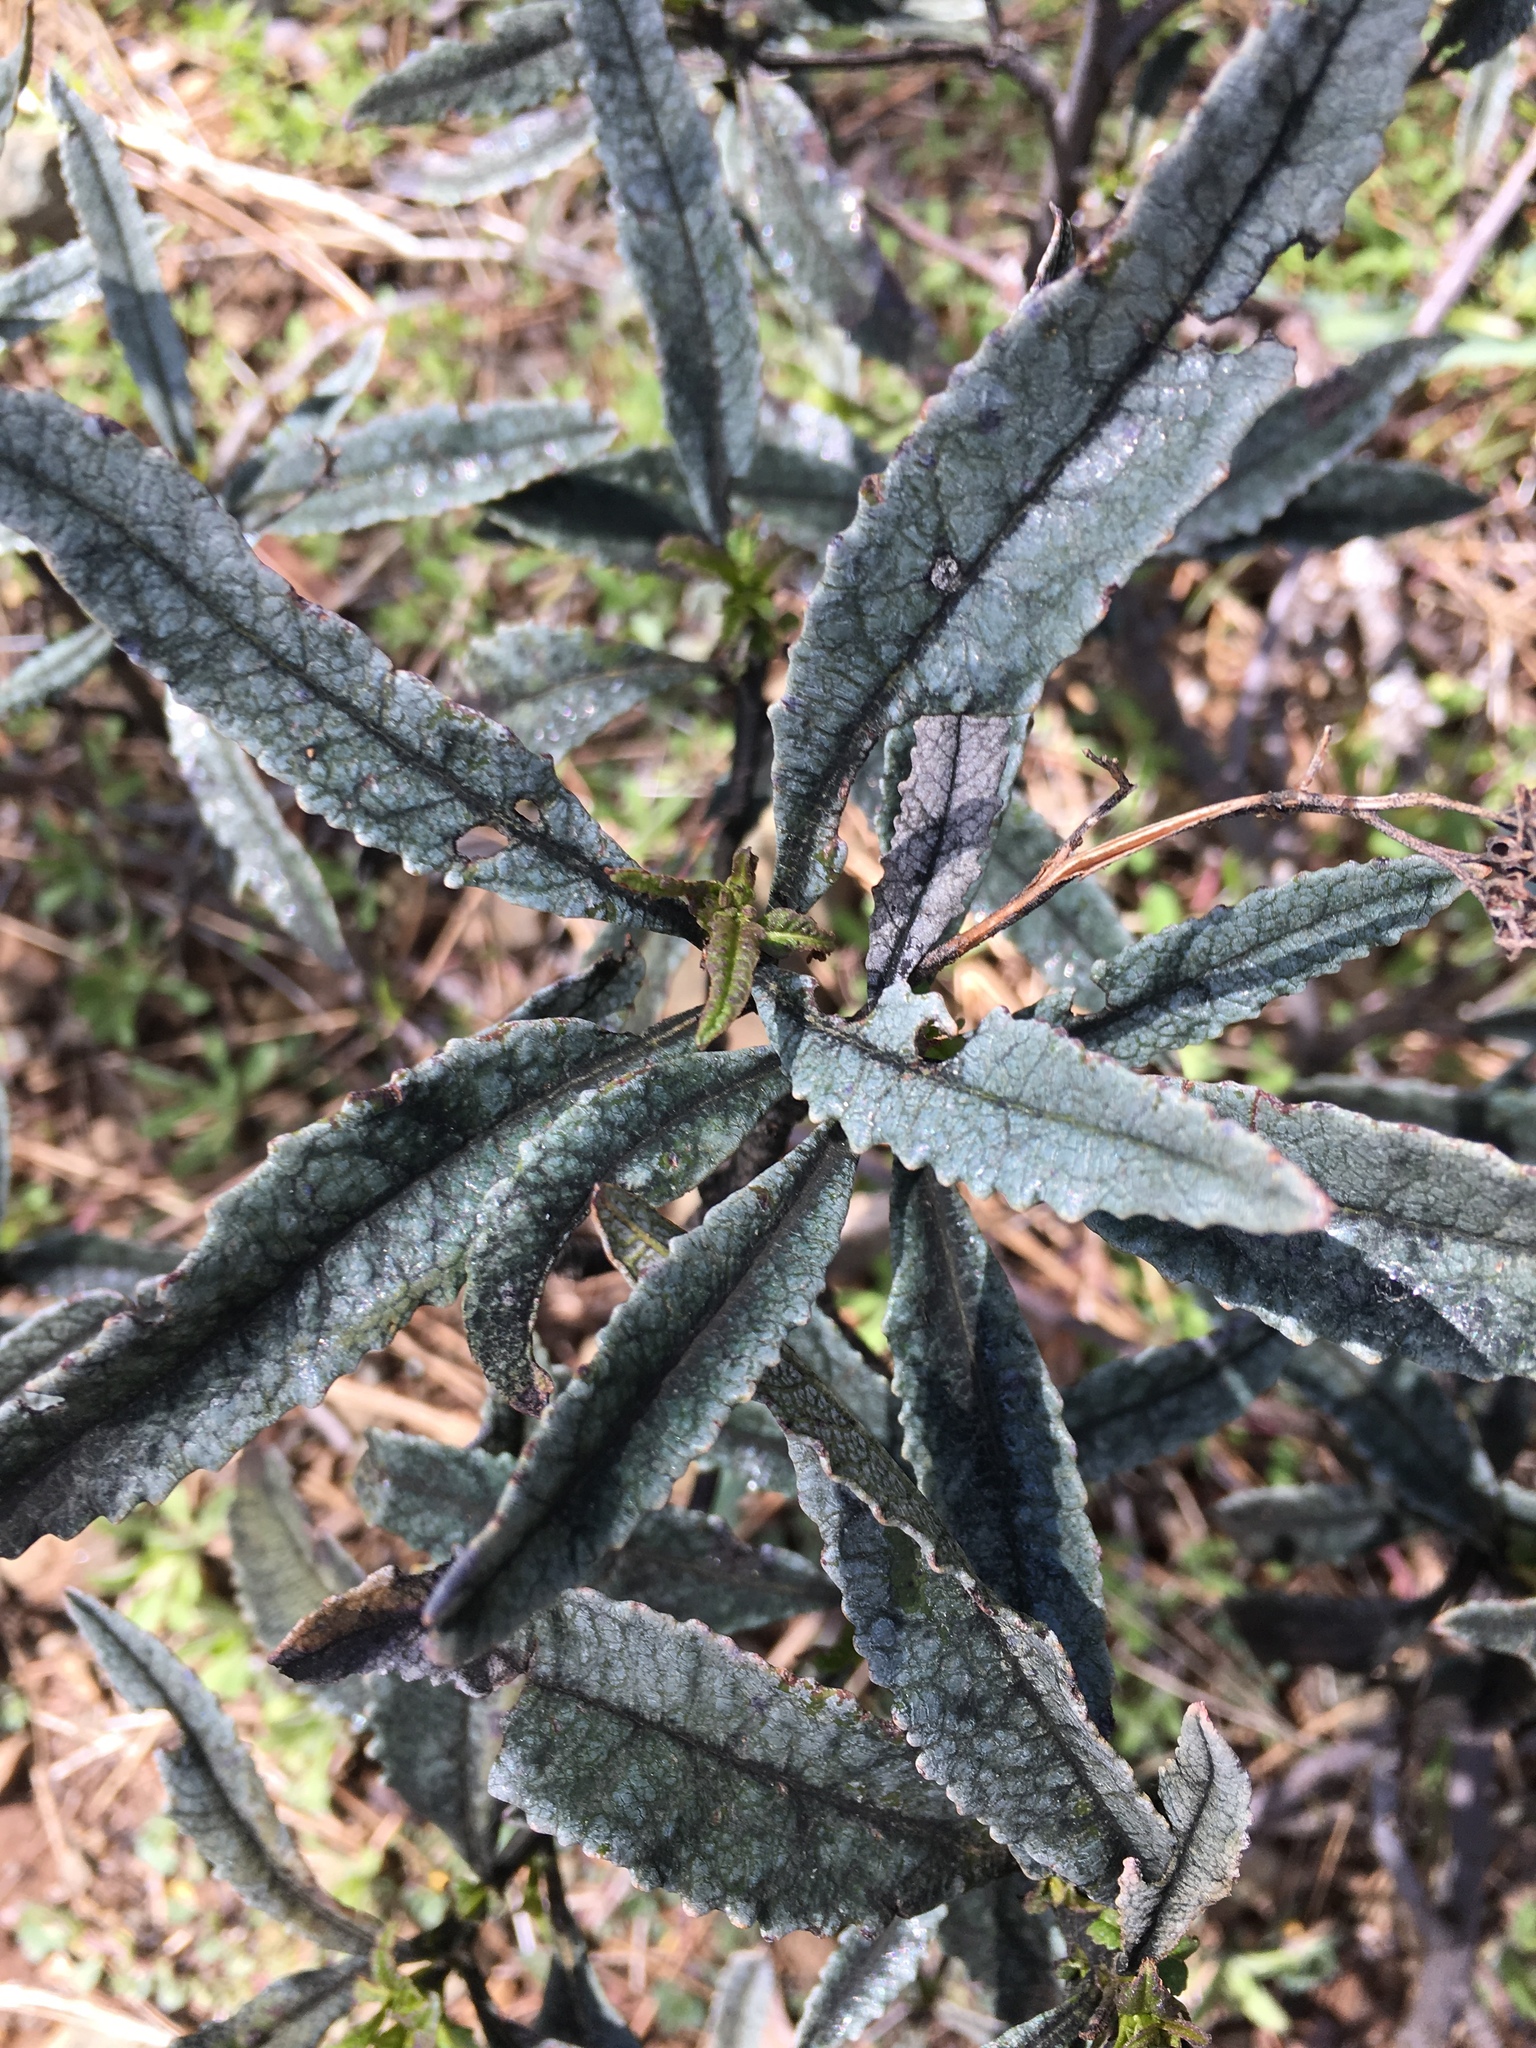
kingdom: Plantae
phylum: Tracheophyta
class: Magnoliopsida
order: Boraginales
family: Namaceae
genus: Eriodictyon
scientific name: Eriodictyon californicum
